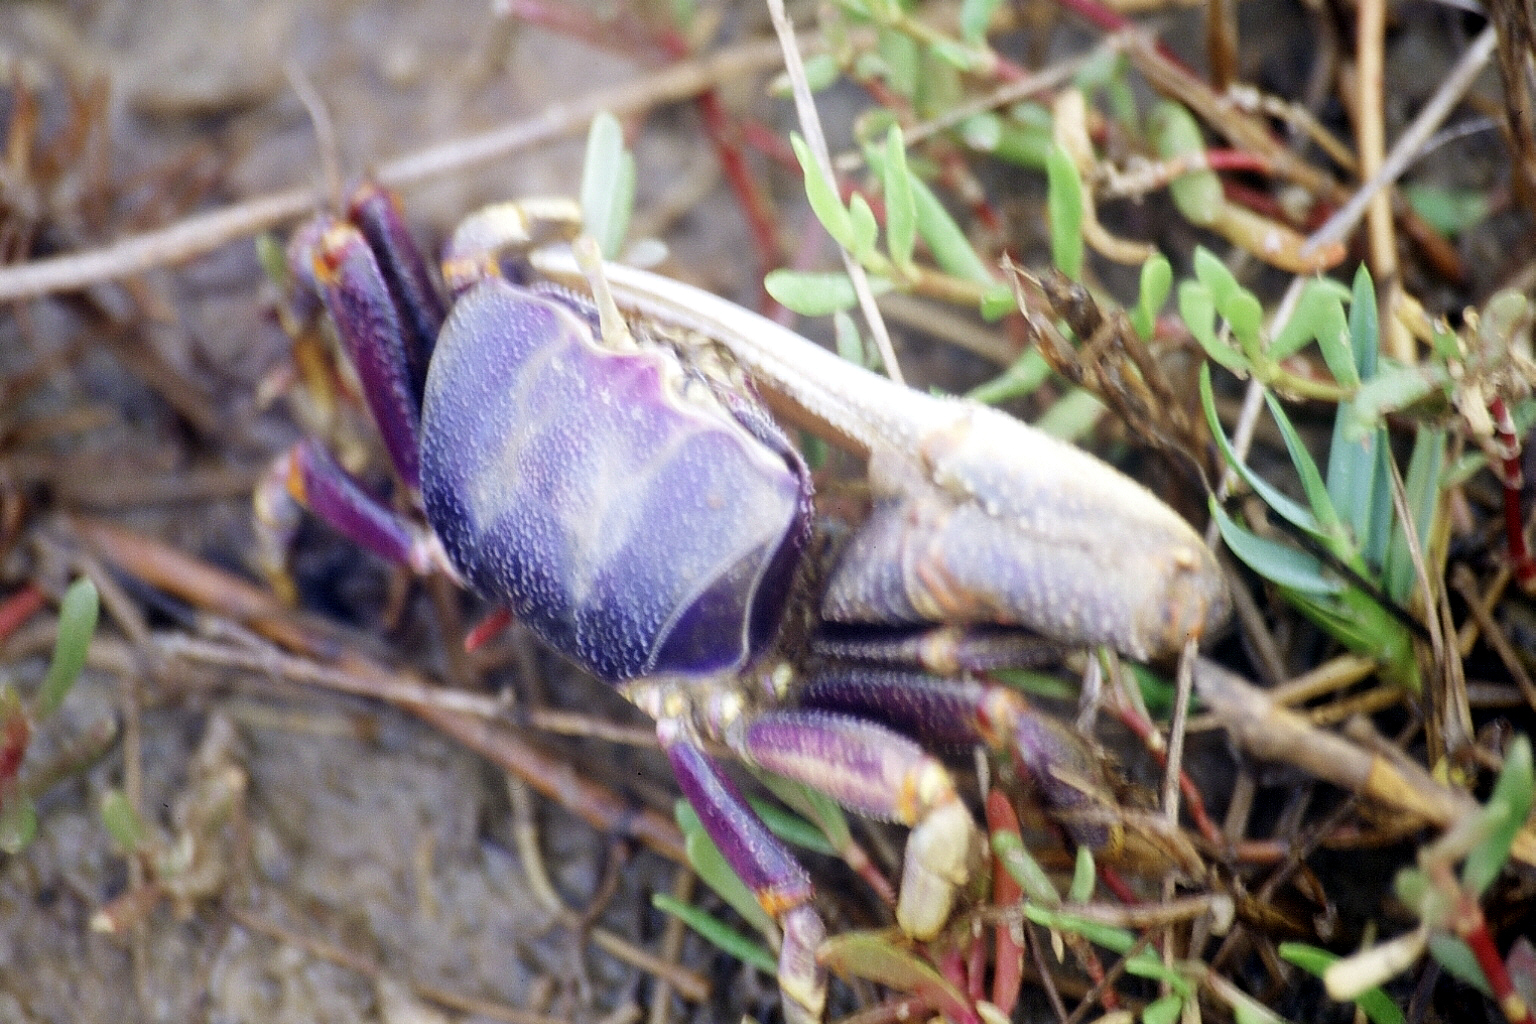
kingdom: Animalia
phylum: Arthropoda
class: Malacostraca
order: Decapoda
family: Ocypodidae
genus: Afruca
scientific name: Afruca tangeri
